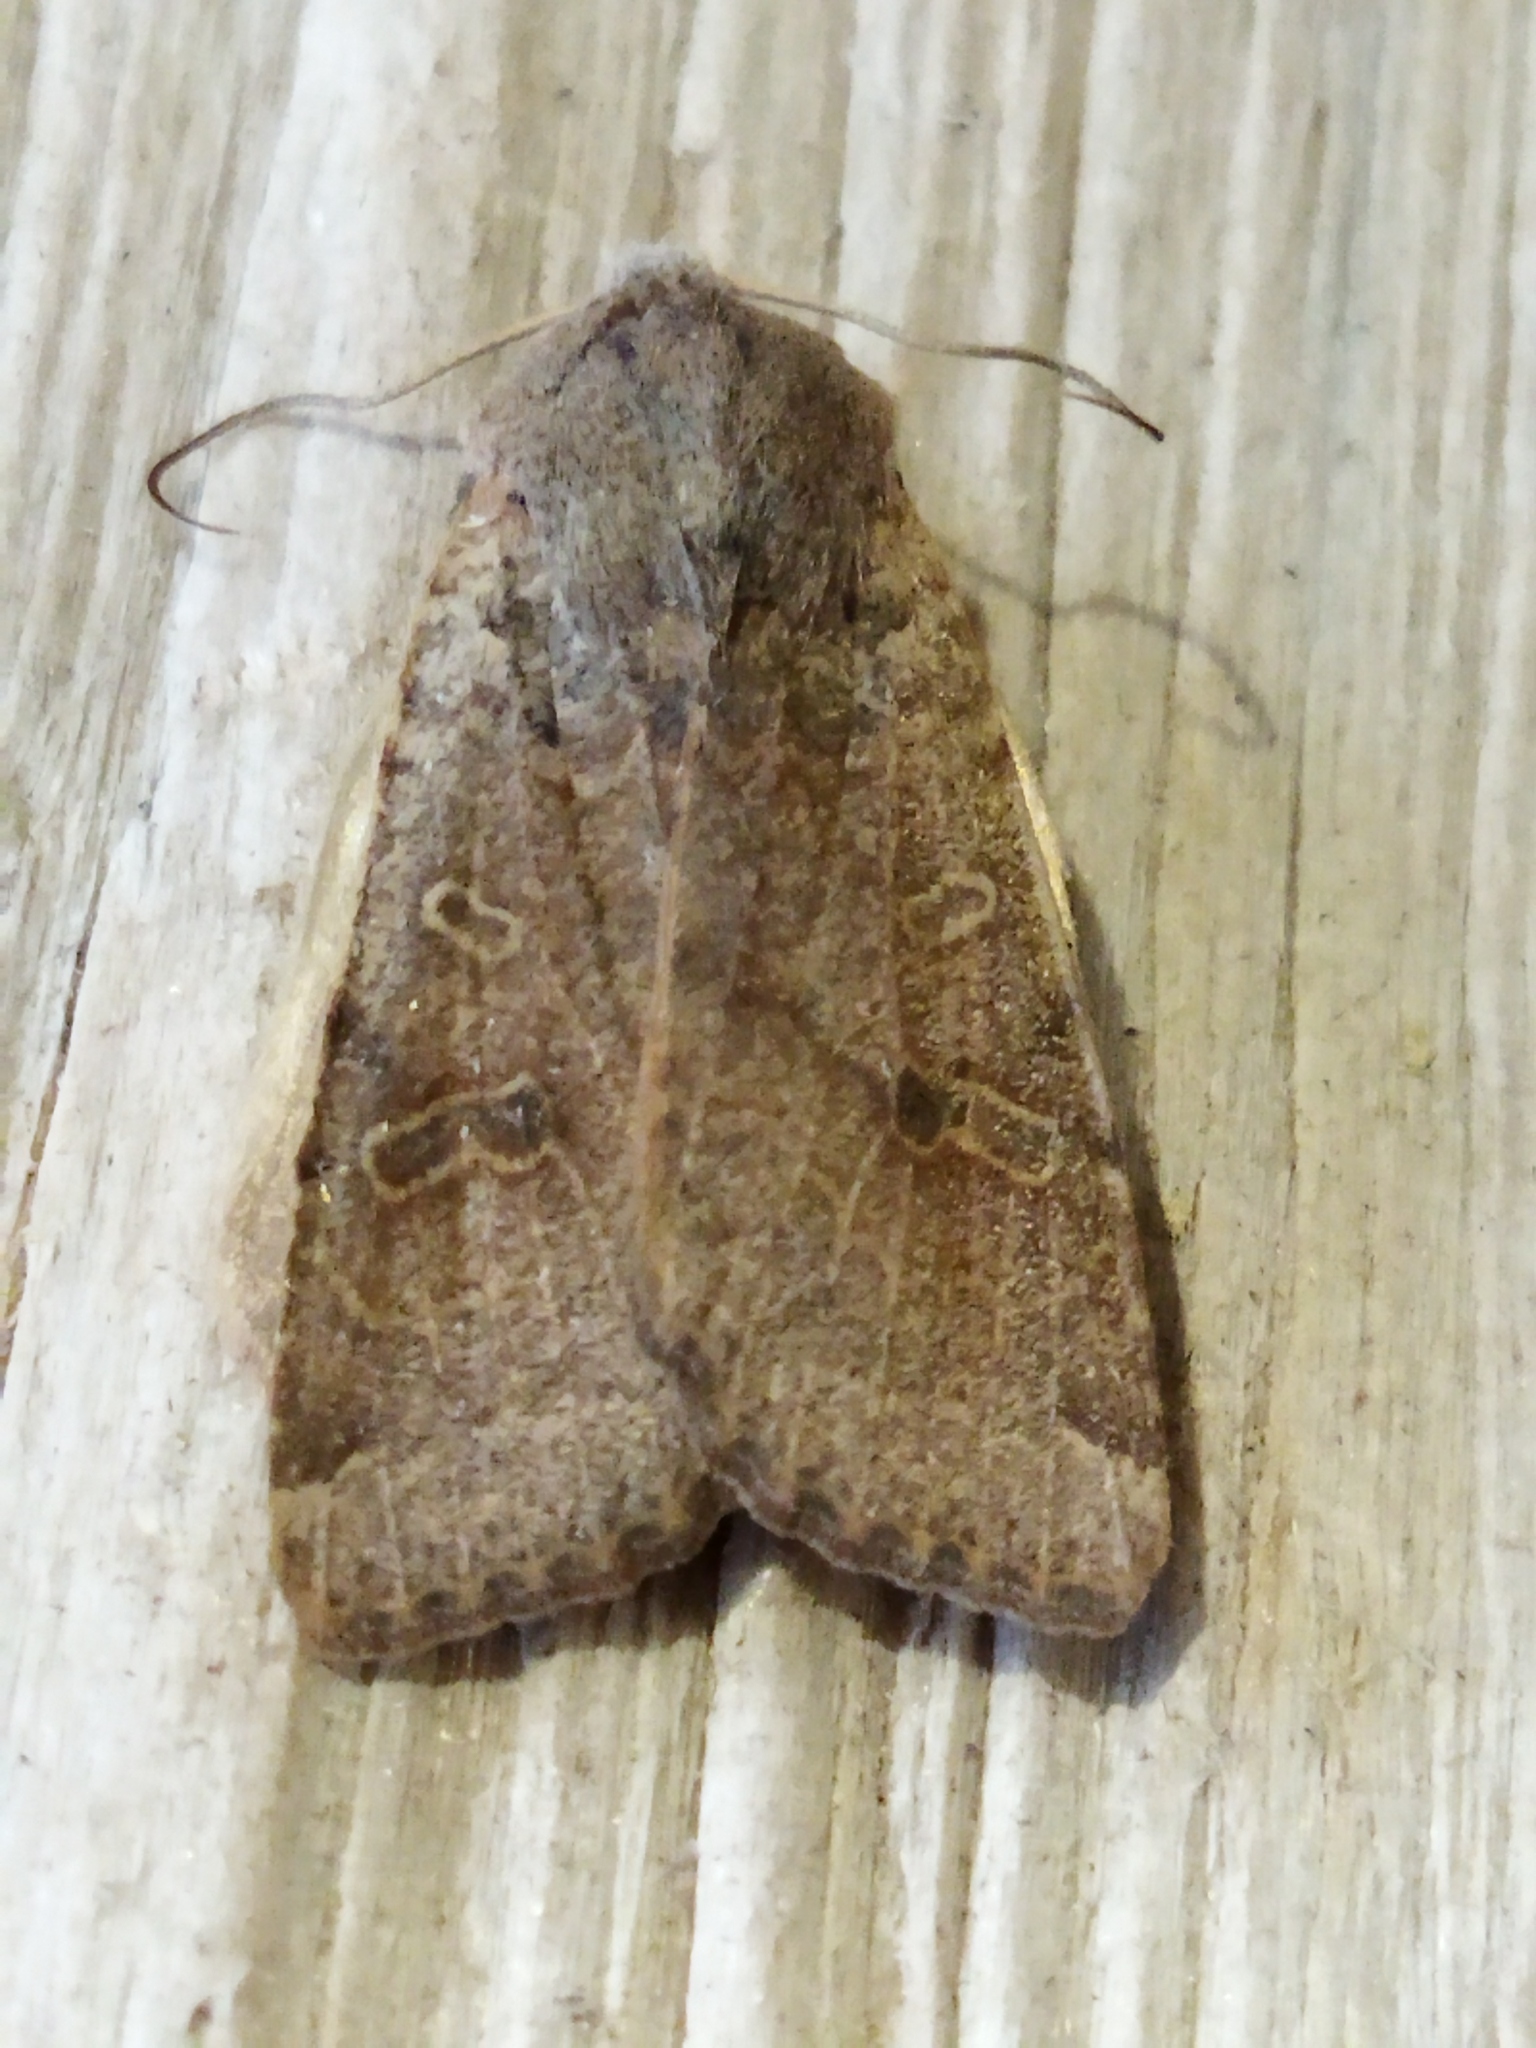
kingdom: Animalia
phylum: Arthropoda
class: Insecta
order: Lepidoptera
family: Noctuidae
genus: Agrochola
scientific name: Agrochola lychnidis
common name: Beaded chestnut
